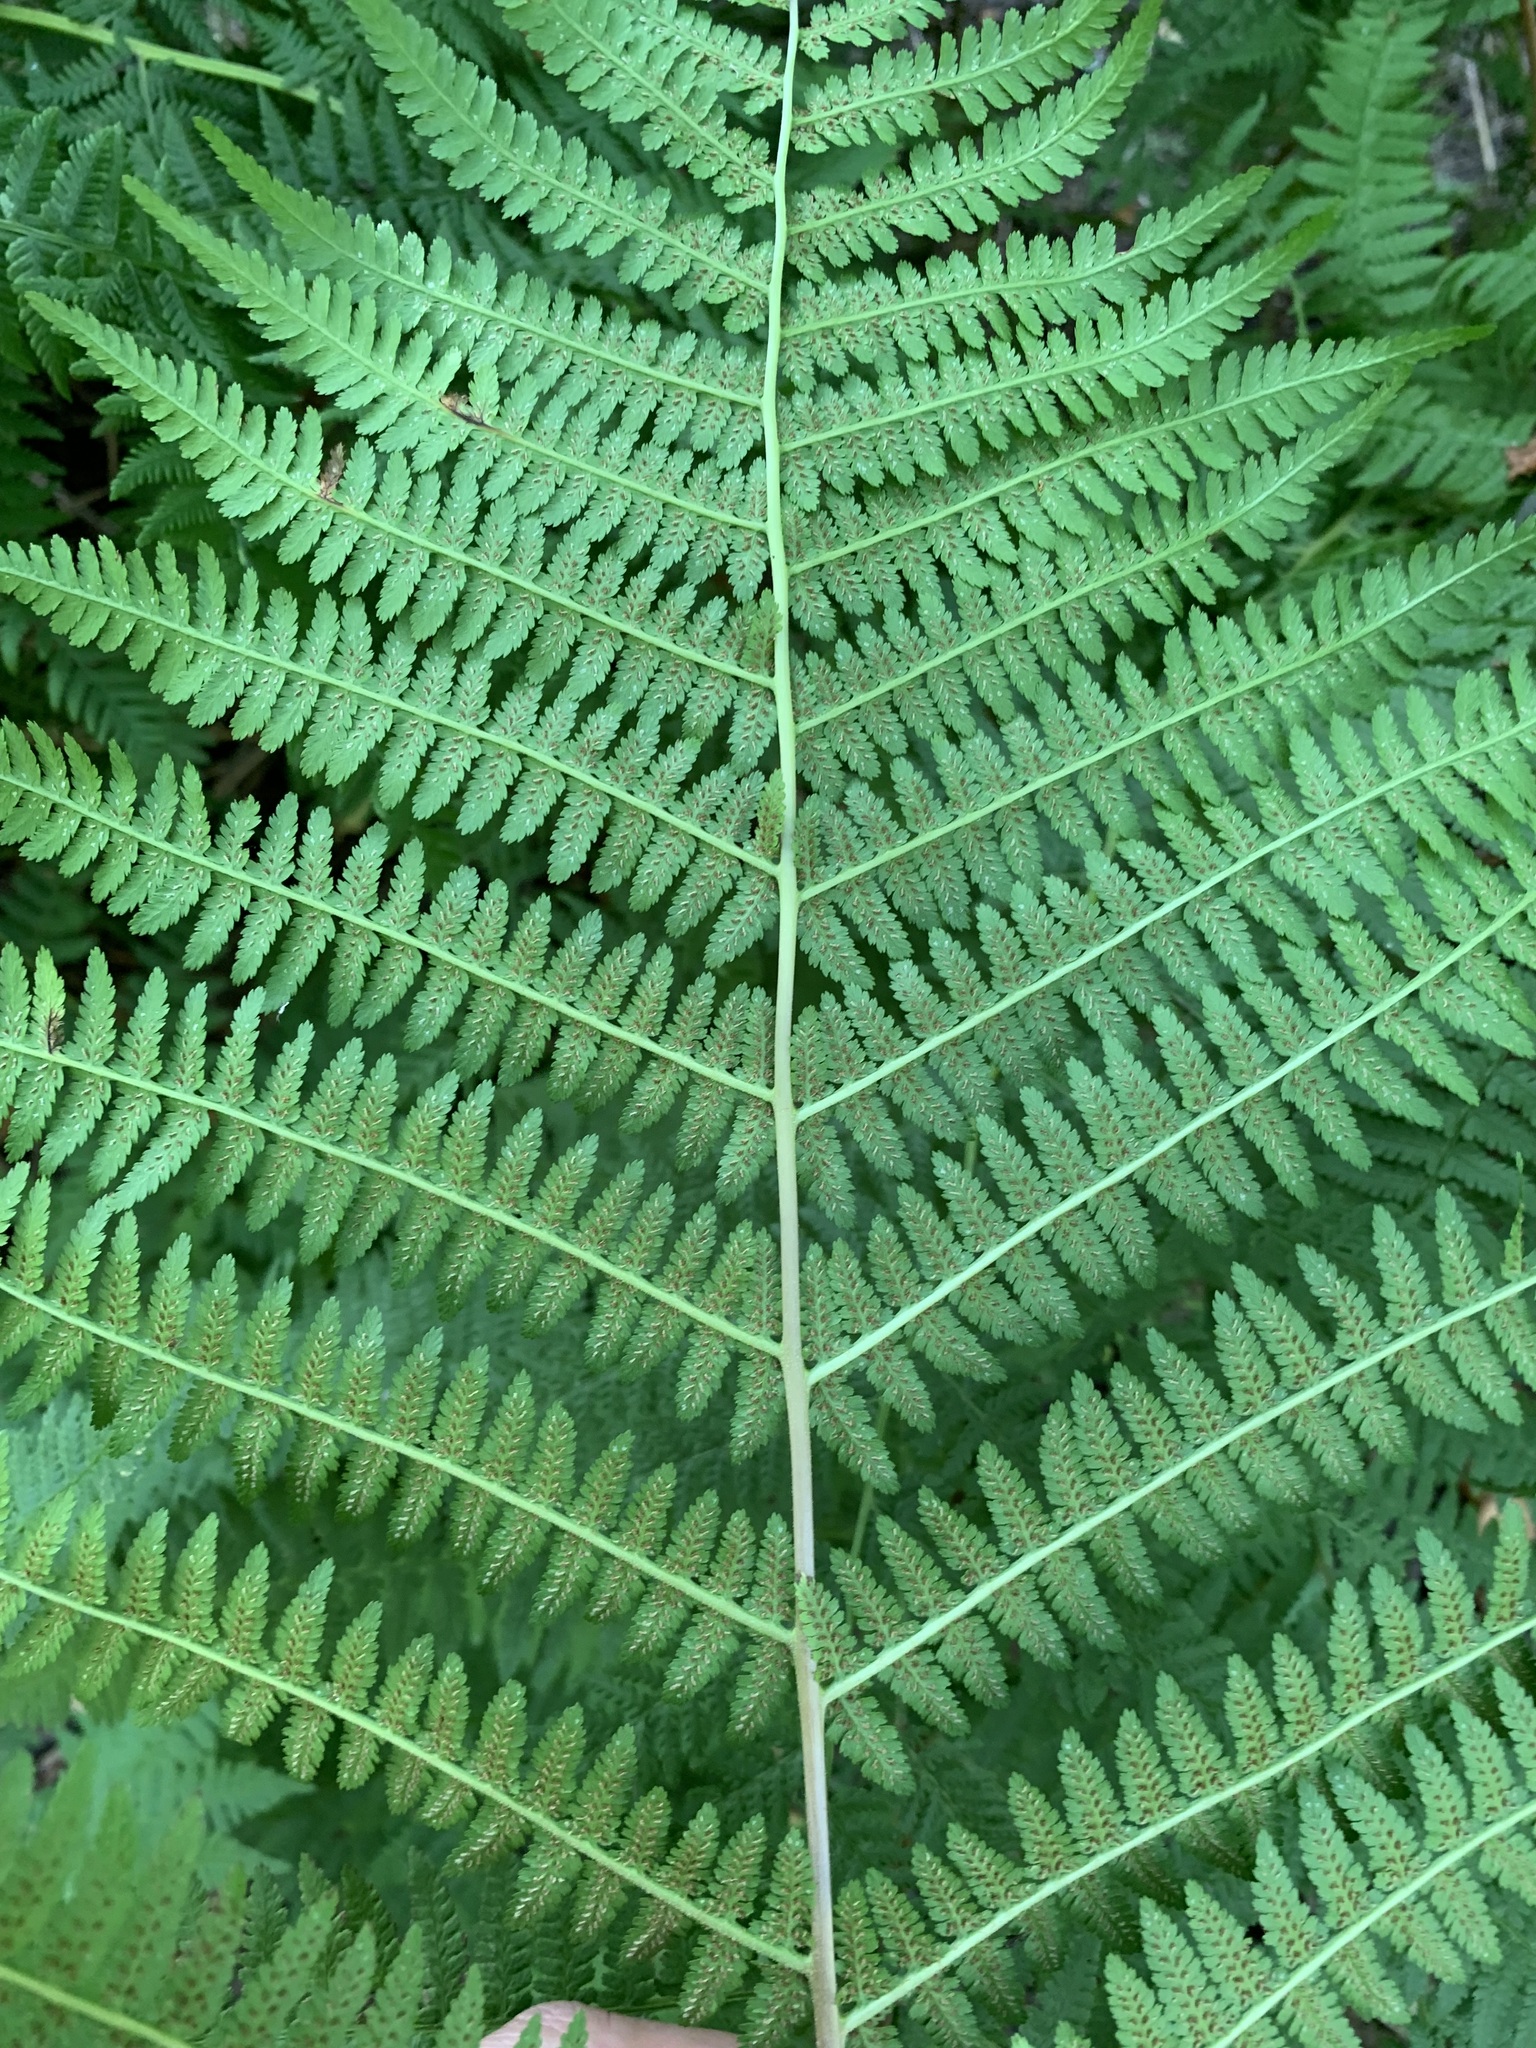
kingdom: Plantae
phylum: Tracheophyta
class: Polypodiopsida
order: Polypodiales
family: Athyriaceae
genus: Athyrium
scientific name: Athyrium filix-femina
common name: Lady fern
